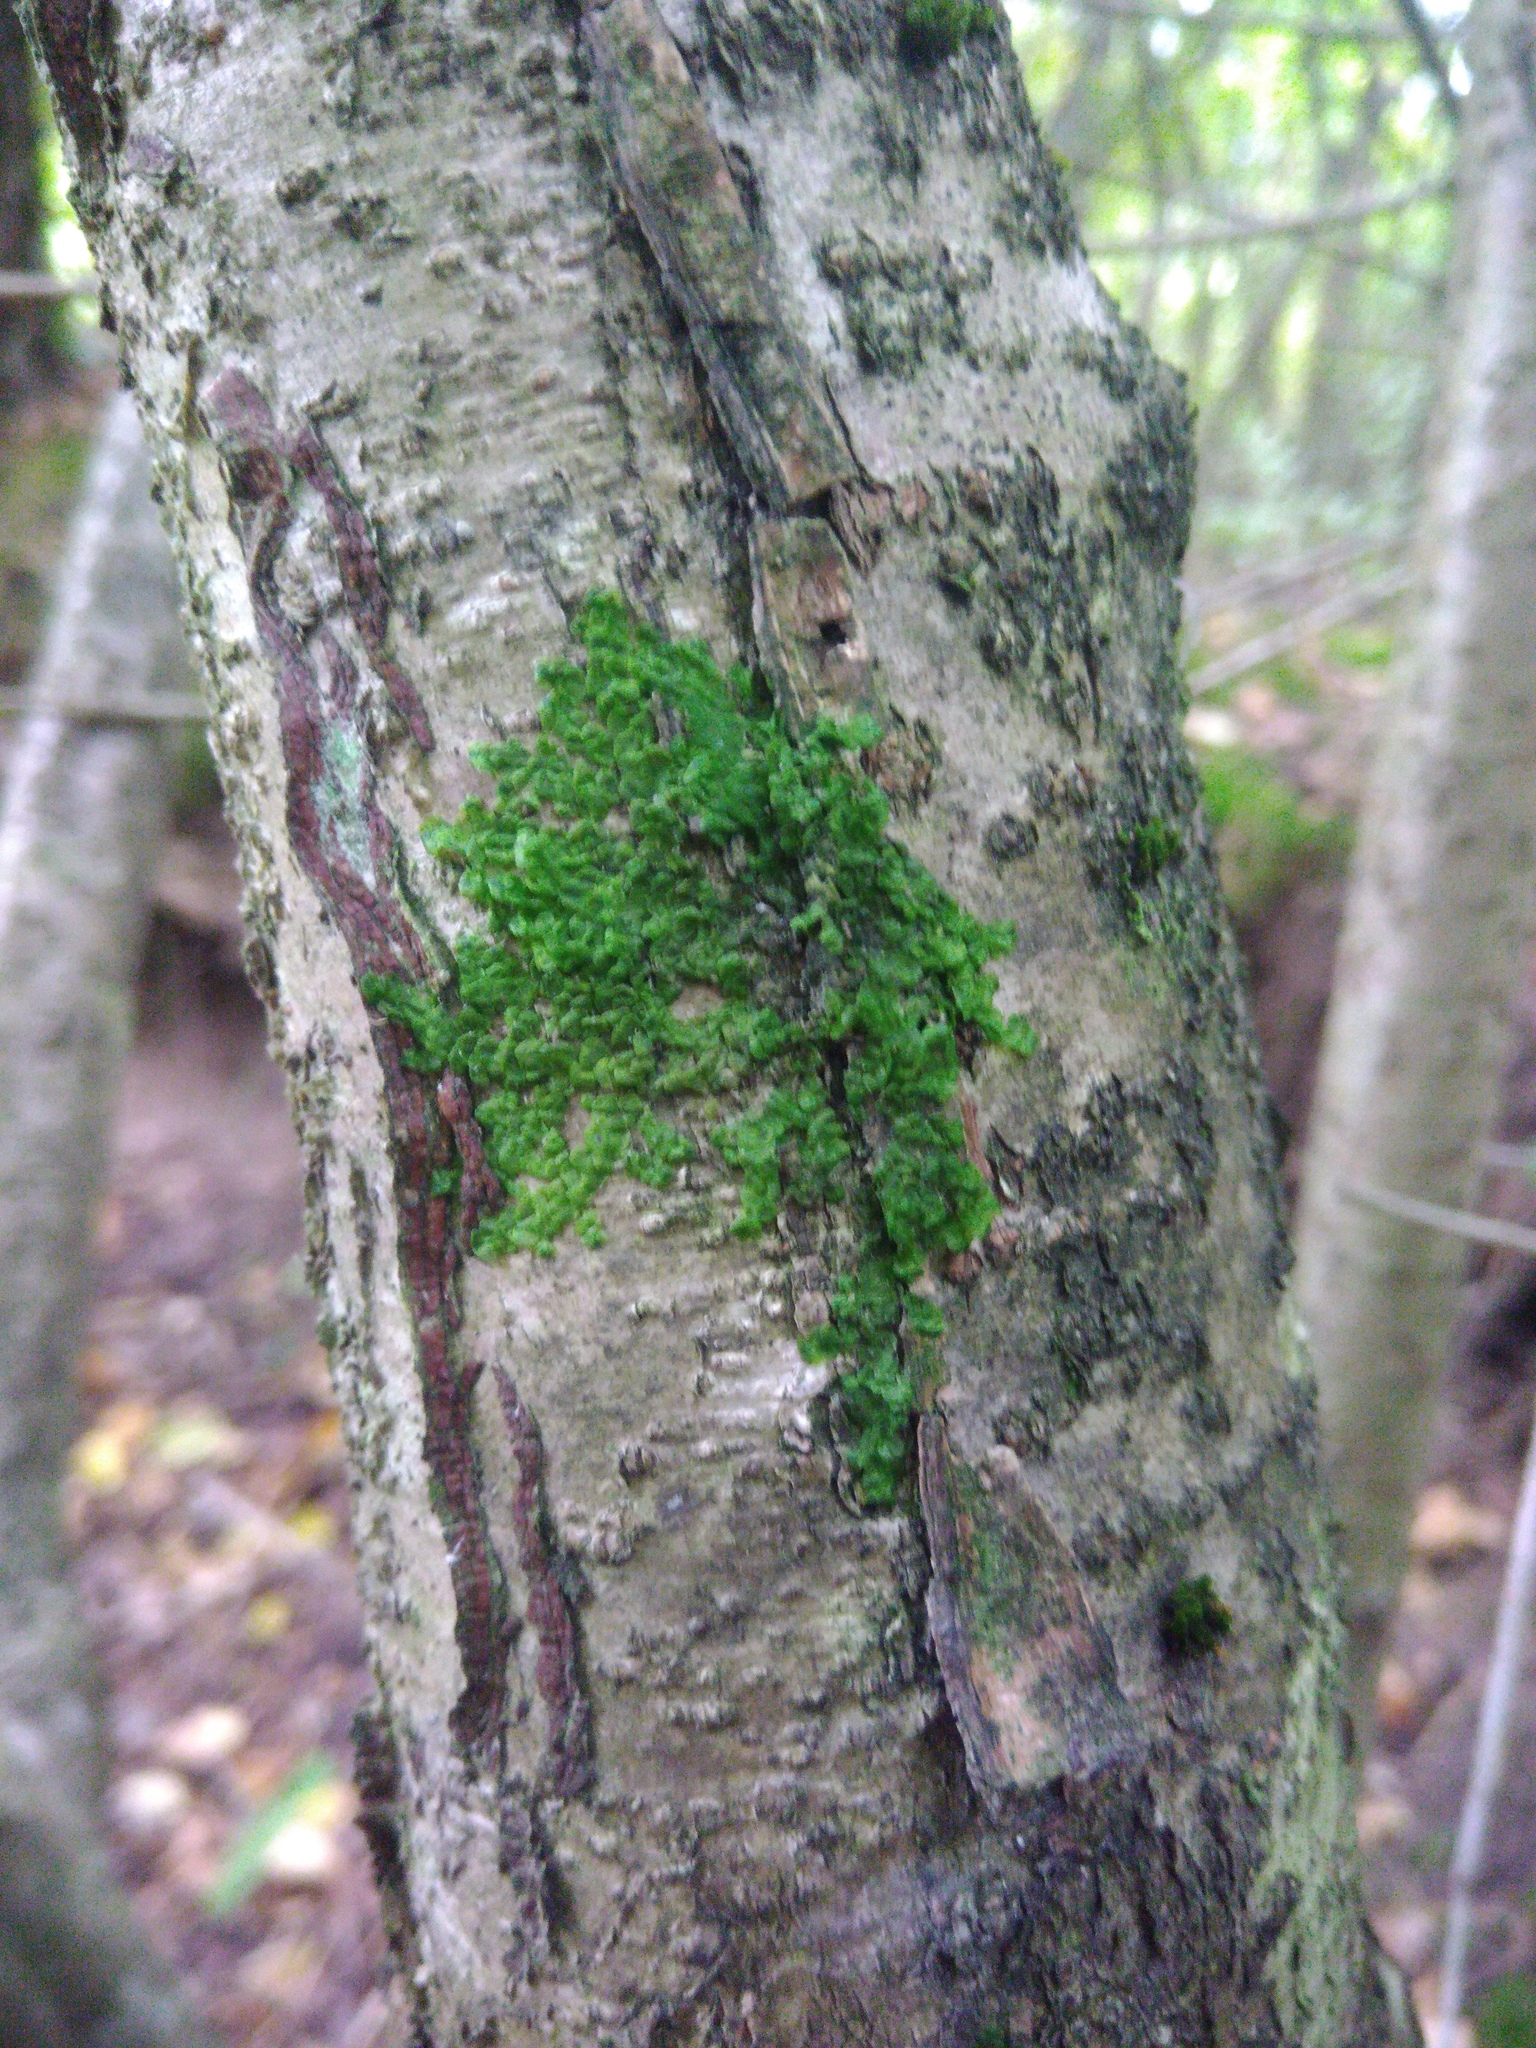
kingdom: Plantae
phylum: Marchantiophyta
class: Jungermanniopsida
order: Porellales
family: Radulaceae
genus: Radula
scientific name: Radula complanata
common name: Flat-leaved scalewort
